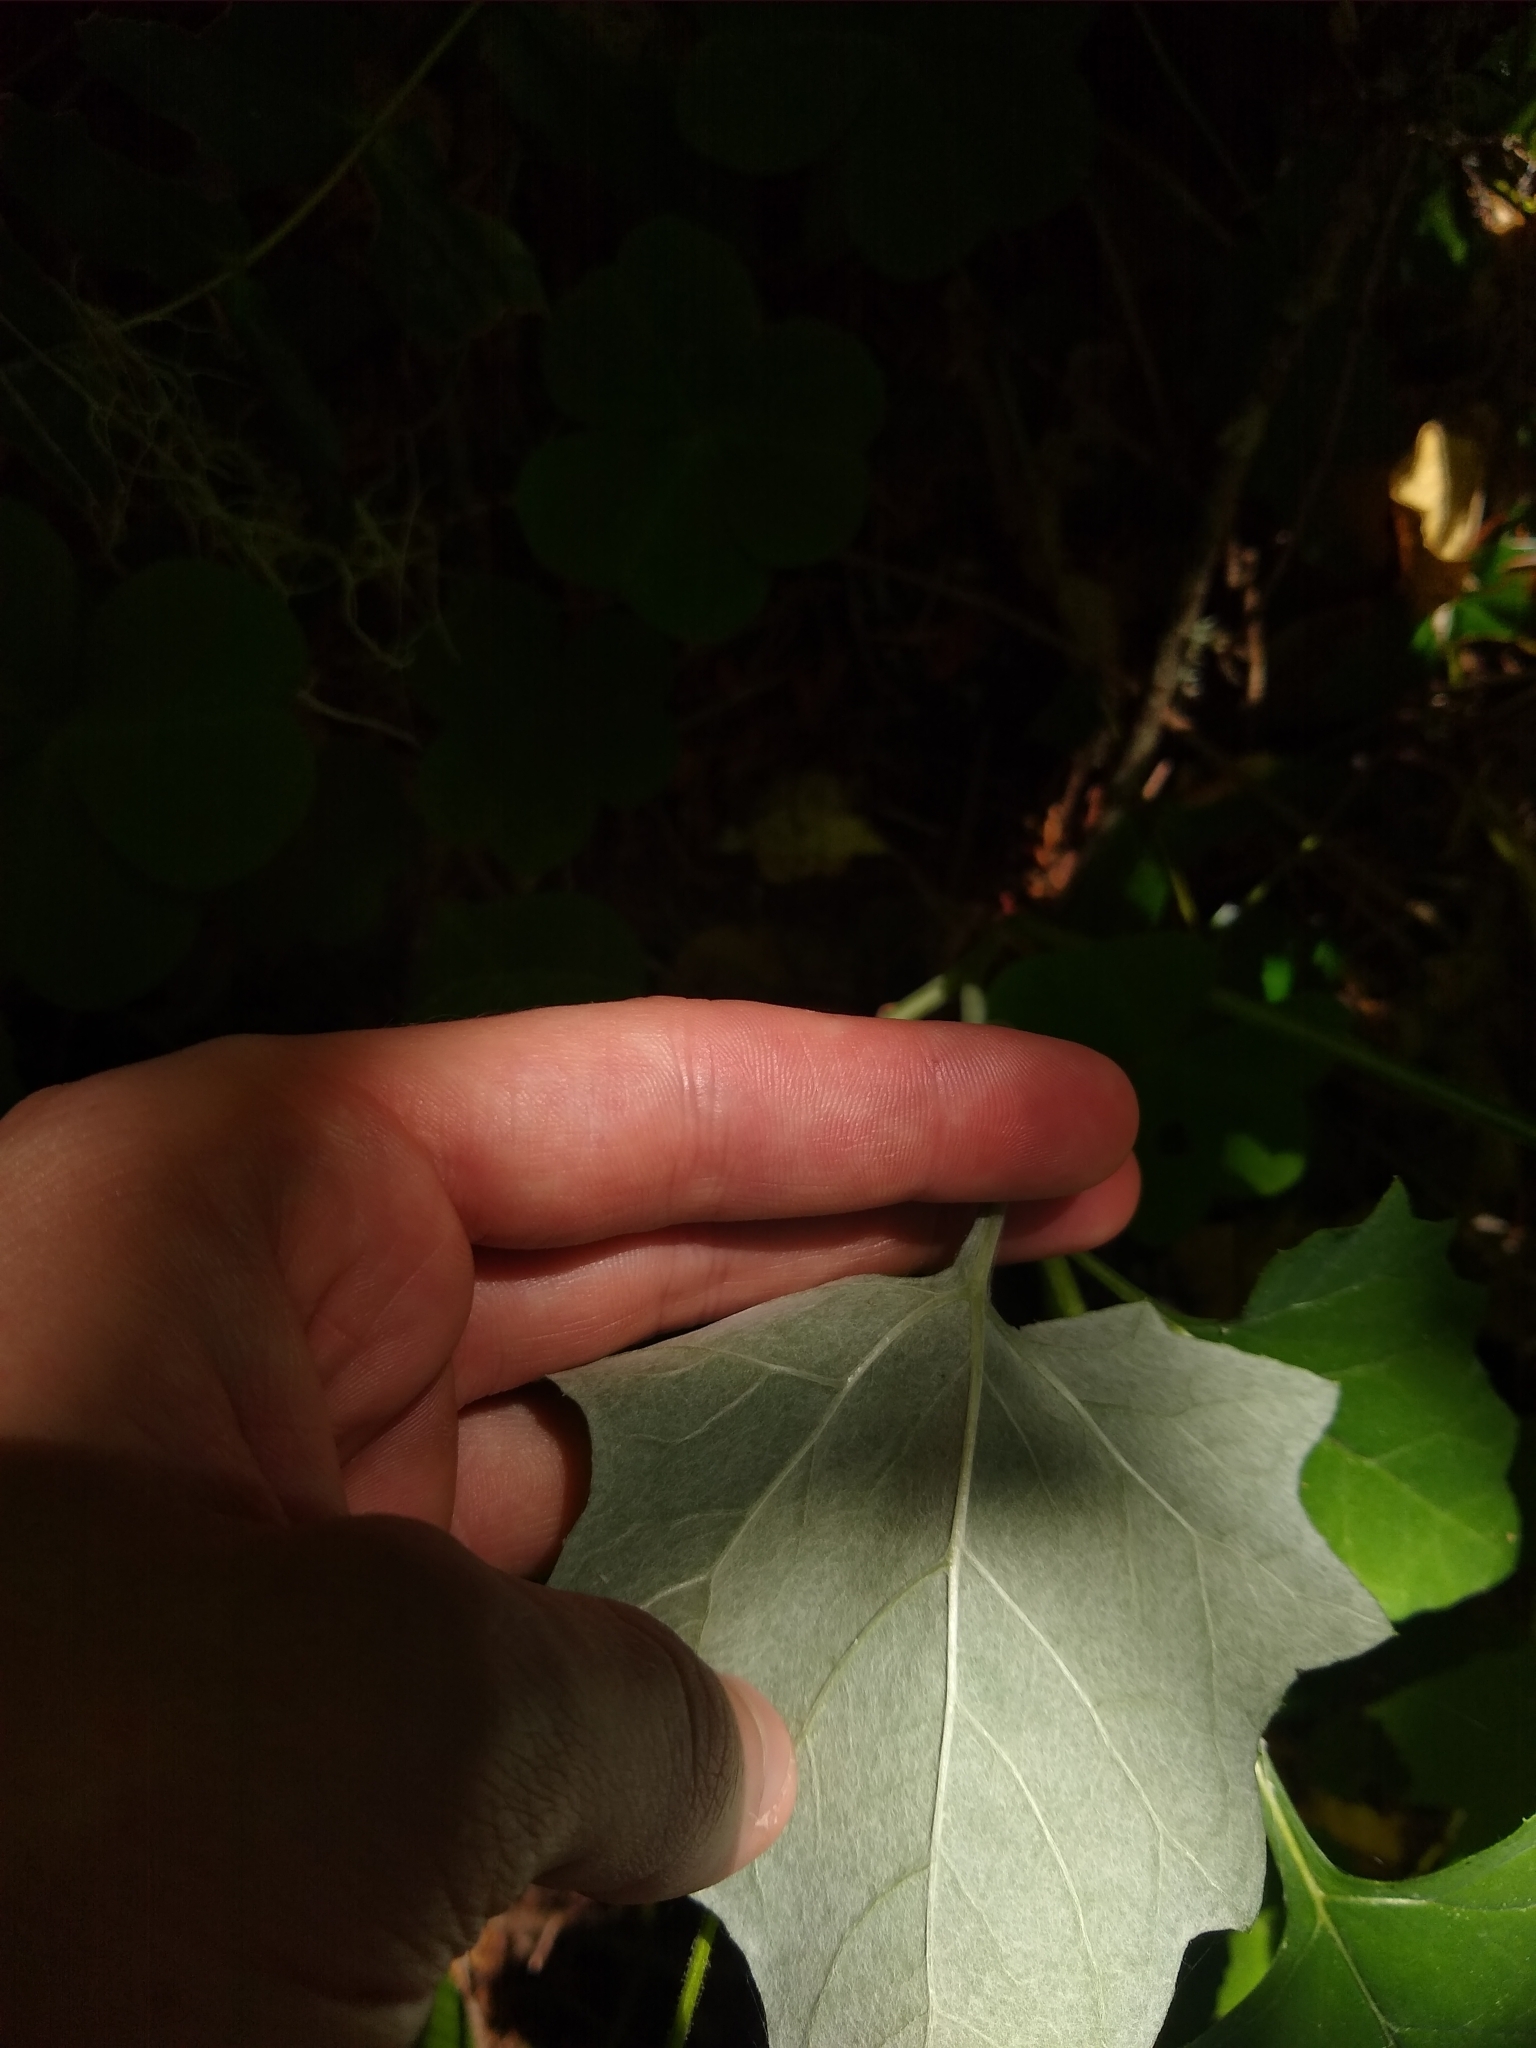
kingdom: Plantae
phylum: Tracheophyta
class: Magnoliopsida
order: Asterales
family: Asteraceae
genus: Adenocaulon
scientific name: Adenocaulon bicolor
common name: Trailplant
